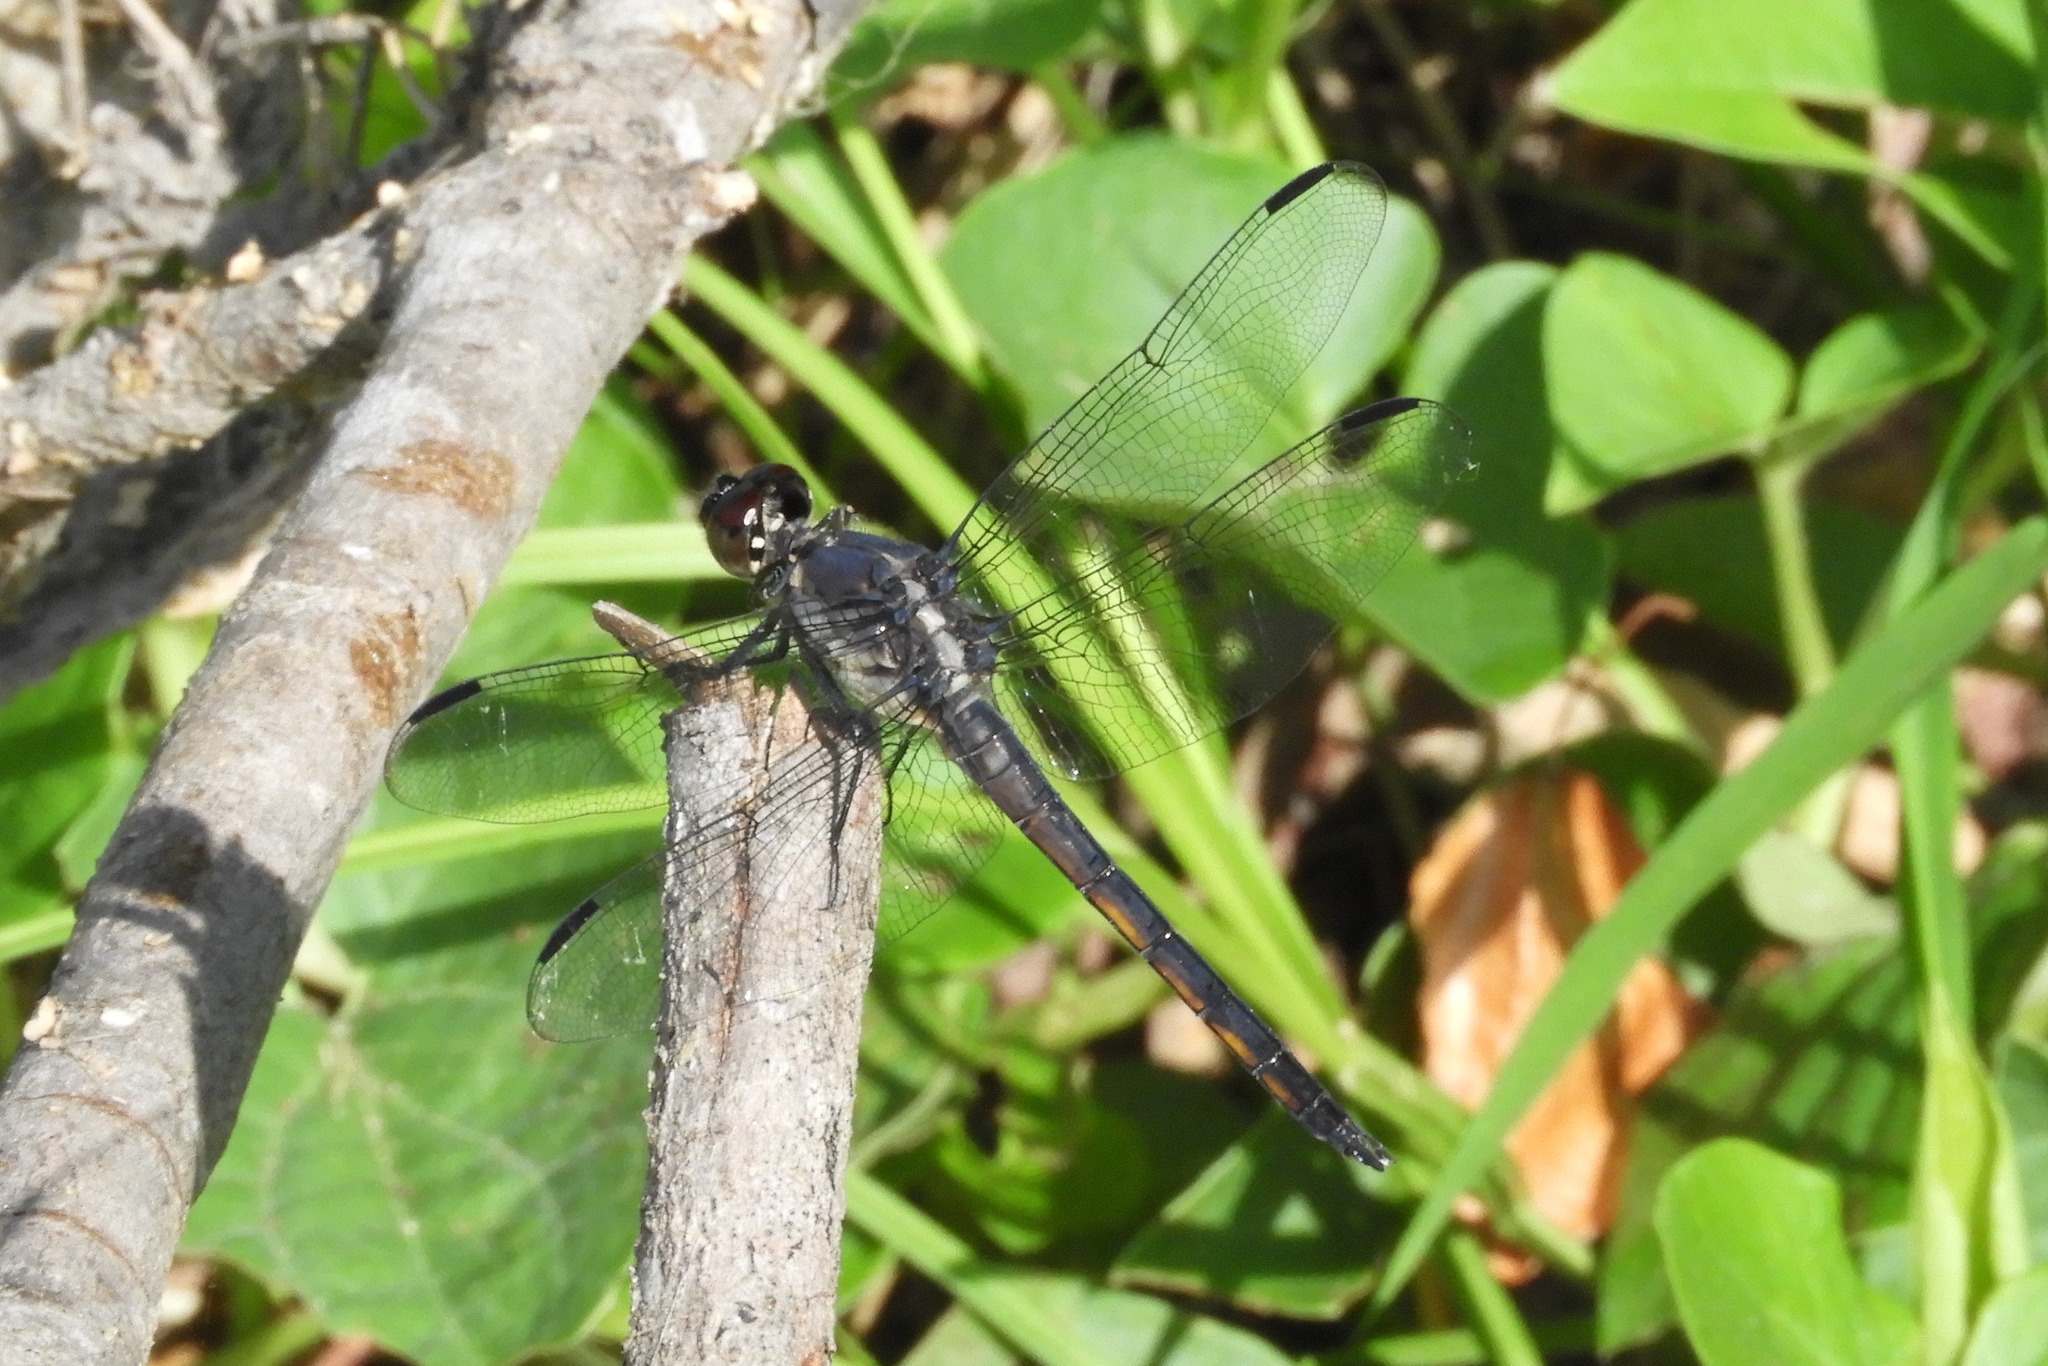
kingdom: Animalia
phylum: Arthropoda
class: Insecta
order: Odonata
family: Libellulidae
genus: Libellula
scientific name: Libellula incesta
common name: Slaty skimmer
